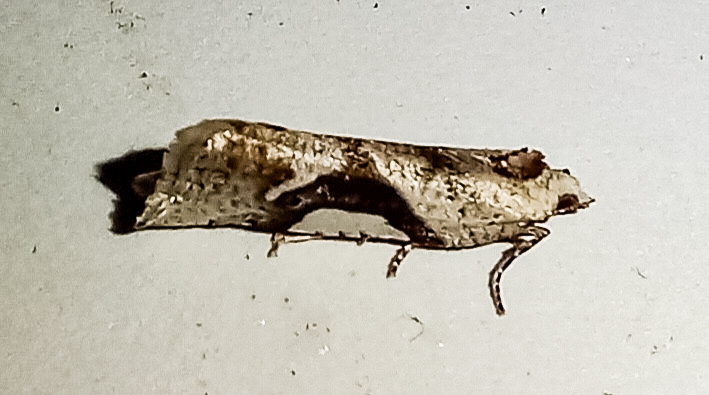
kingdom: Animalia
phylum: Arthropoda
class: Insecta
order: Lepidoptera
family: Tortricidae
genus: Pyrgotis
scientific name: Pyrgotis plagiatana
